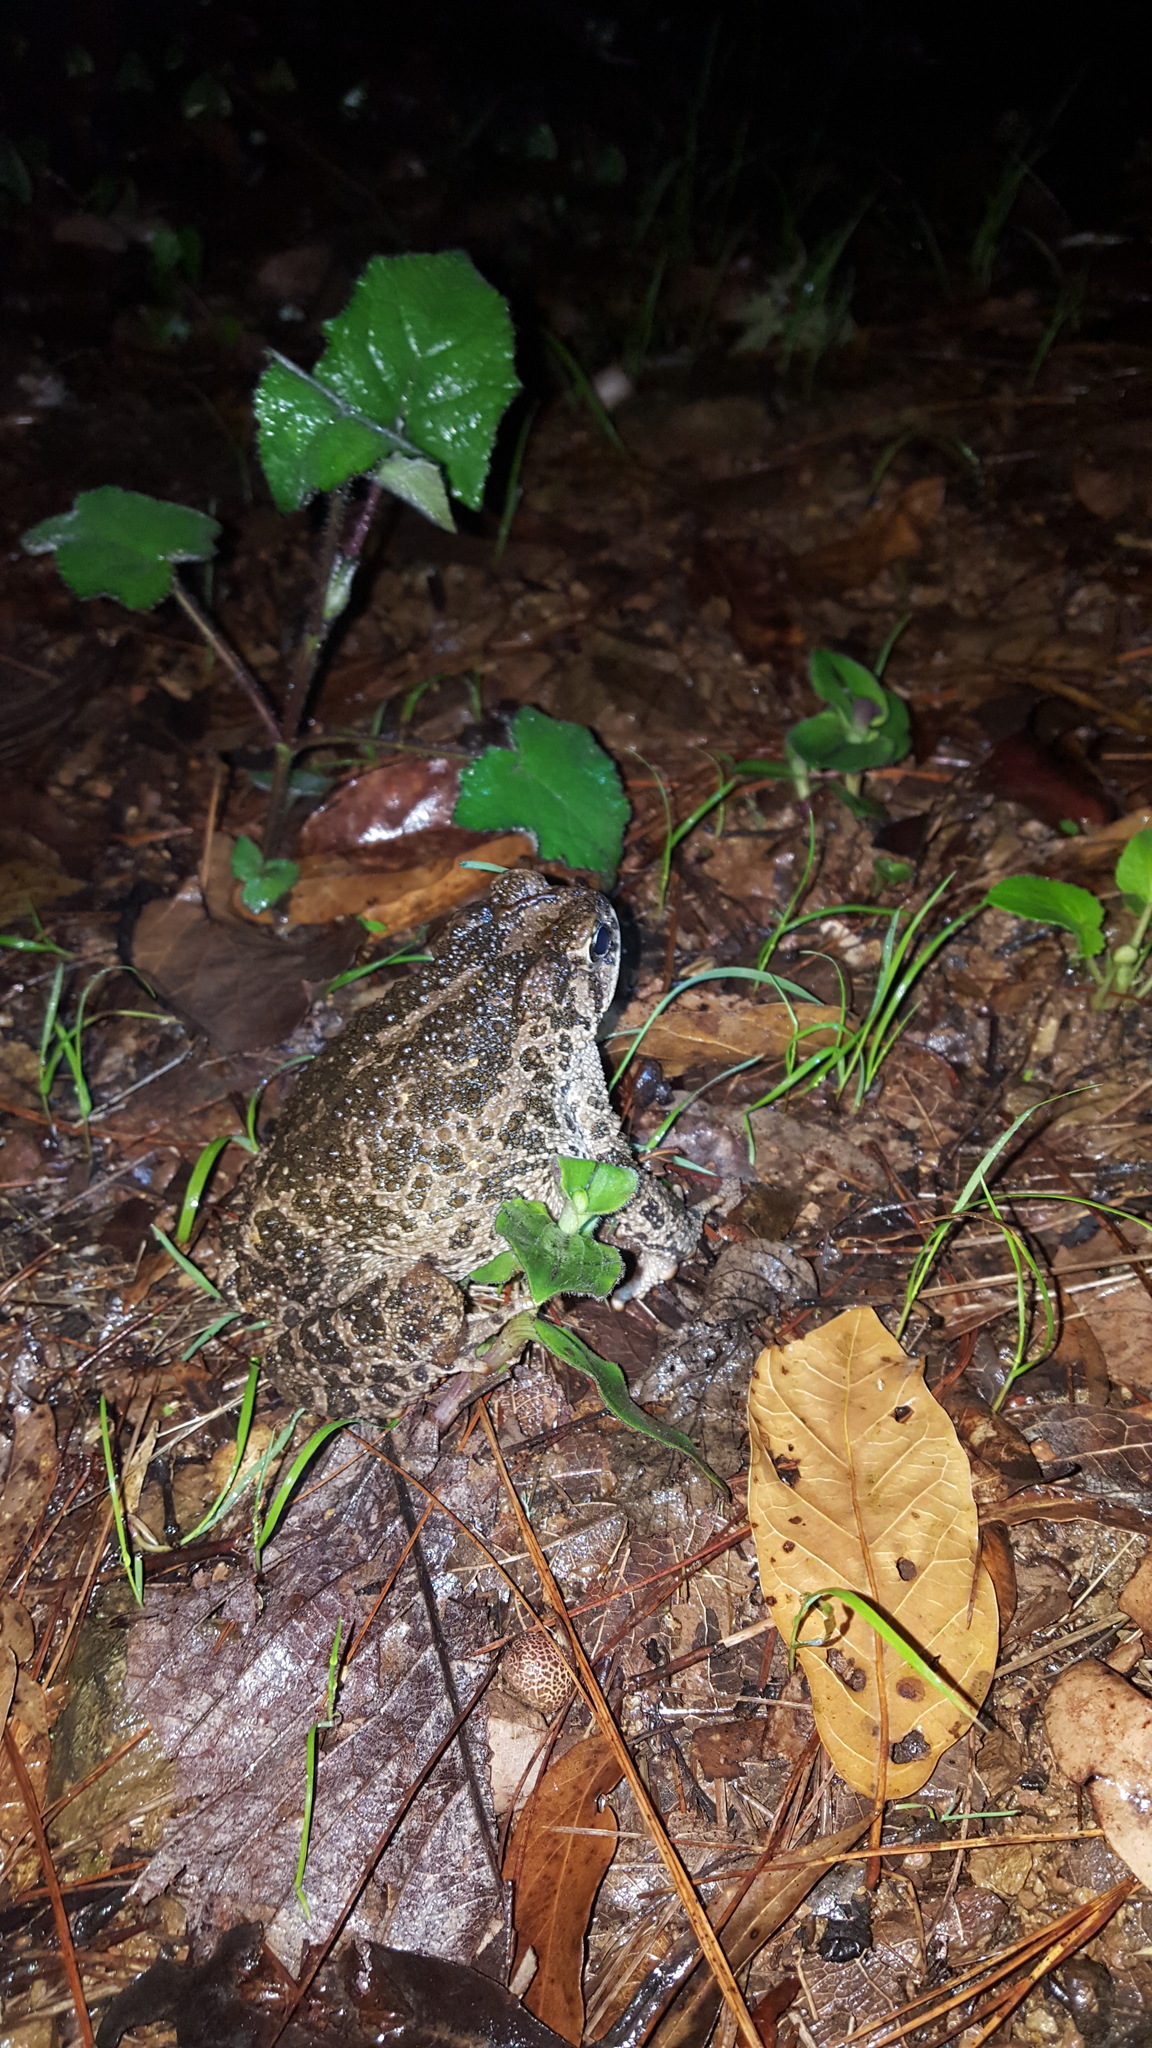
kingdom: Animalia
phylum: Chordata
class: Amphibia
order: Anura
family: Bufonidae
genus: Incilius
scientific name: Incilius occidentalis
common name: Pine toad
